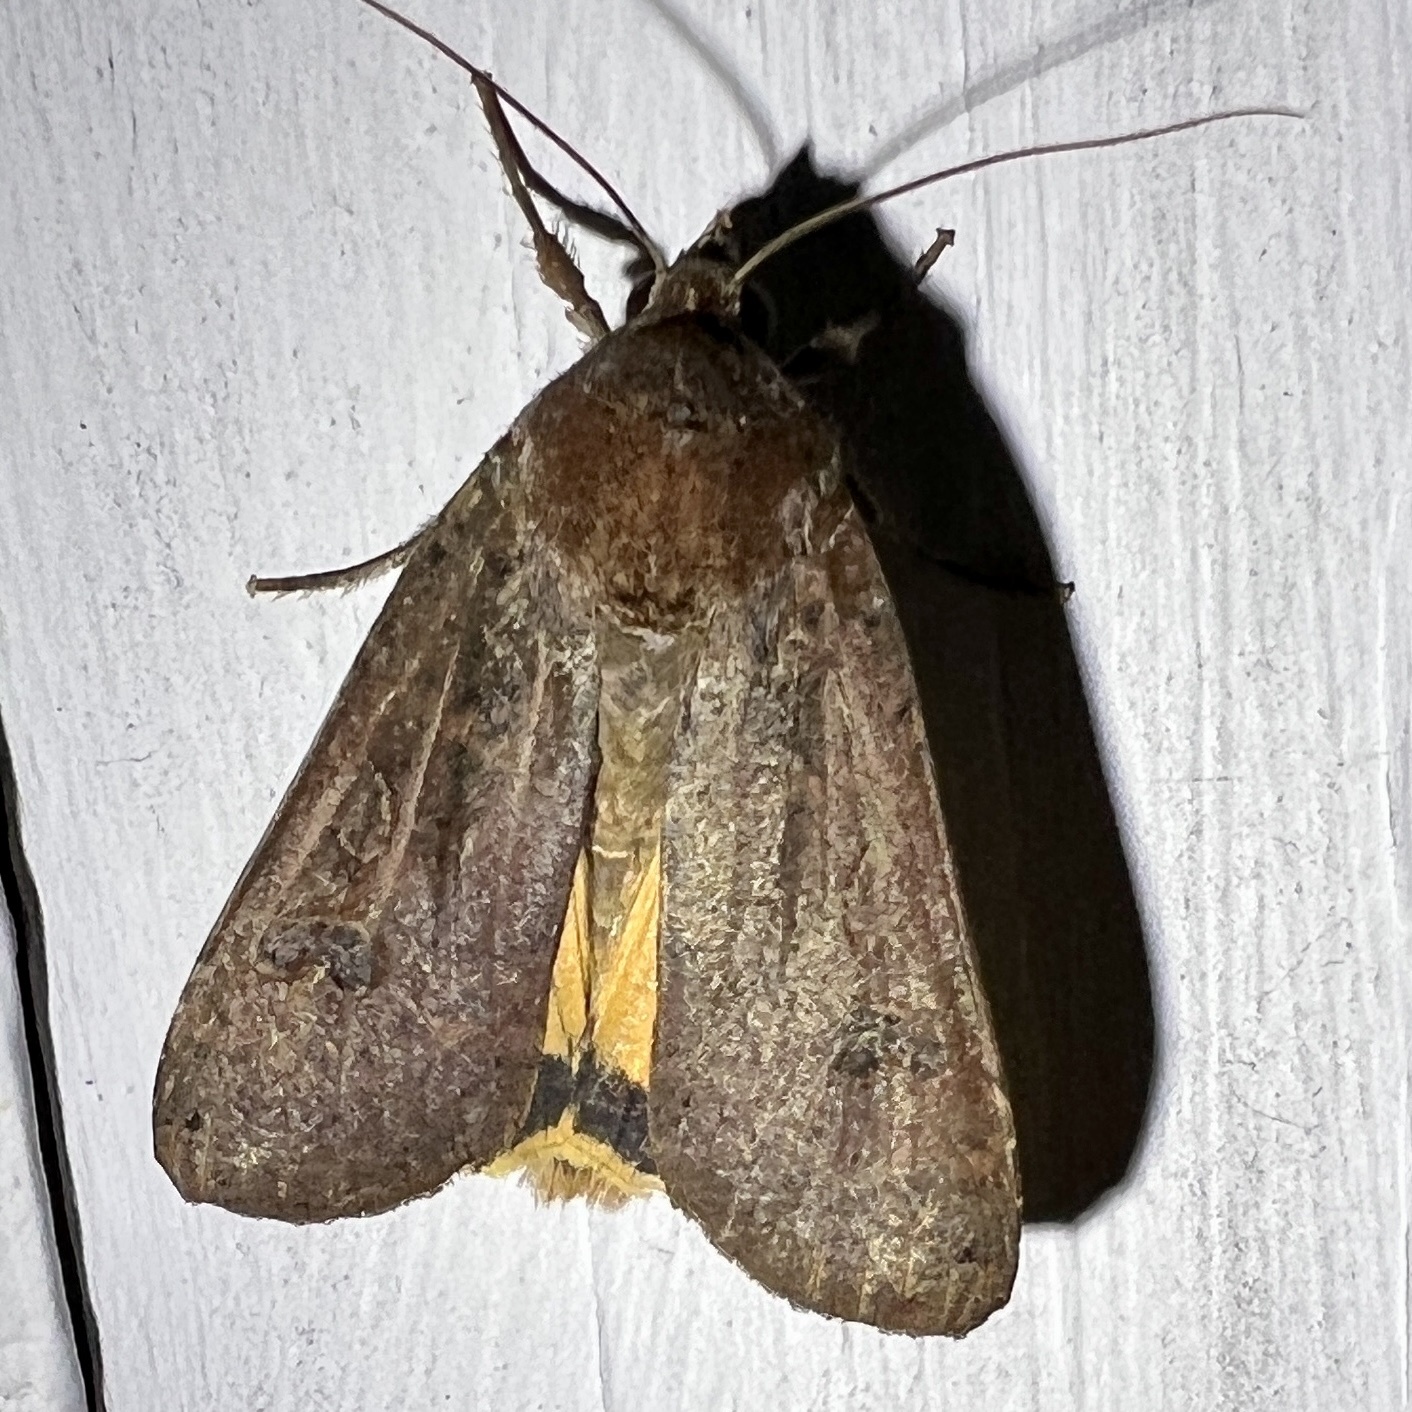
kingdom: Animalia
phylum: Arthropoda
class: Insecta
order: Lepidoptera
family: Noctuidae
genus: Noctua
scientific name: Noctua pronuba
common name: Large yellow underwing
